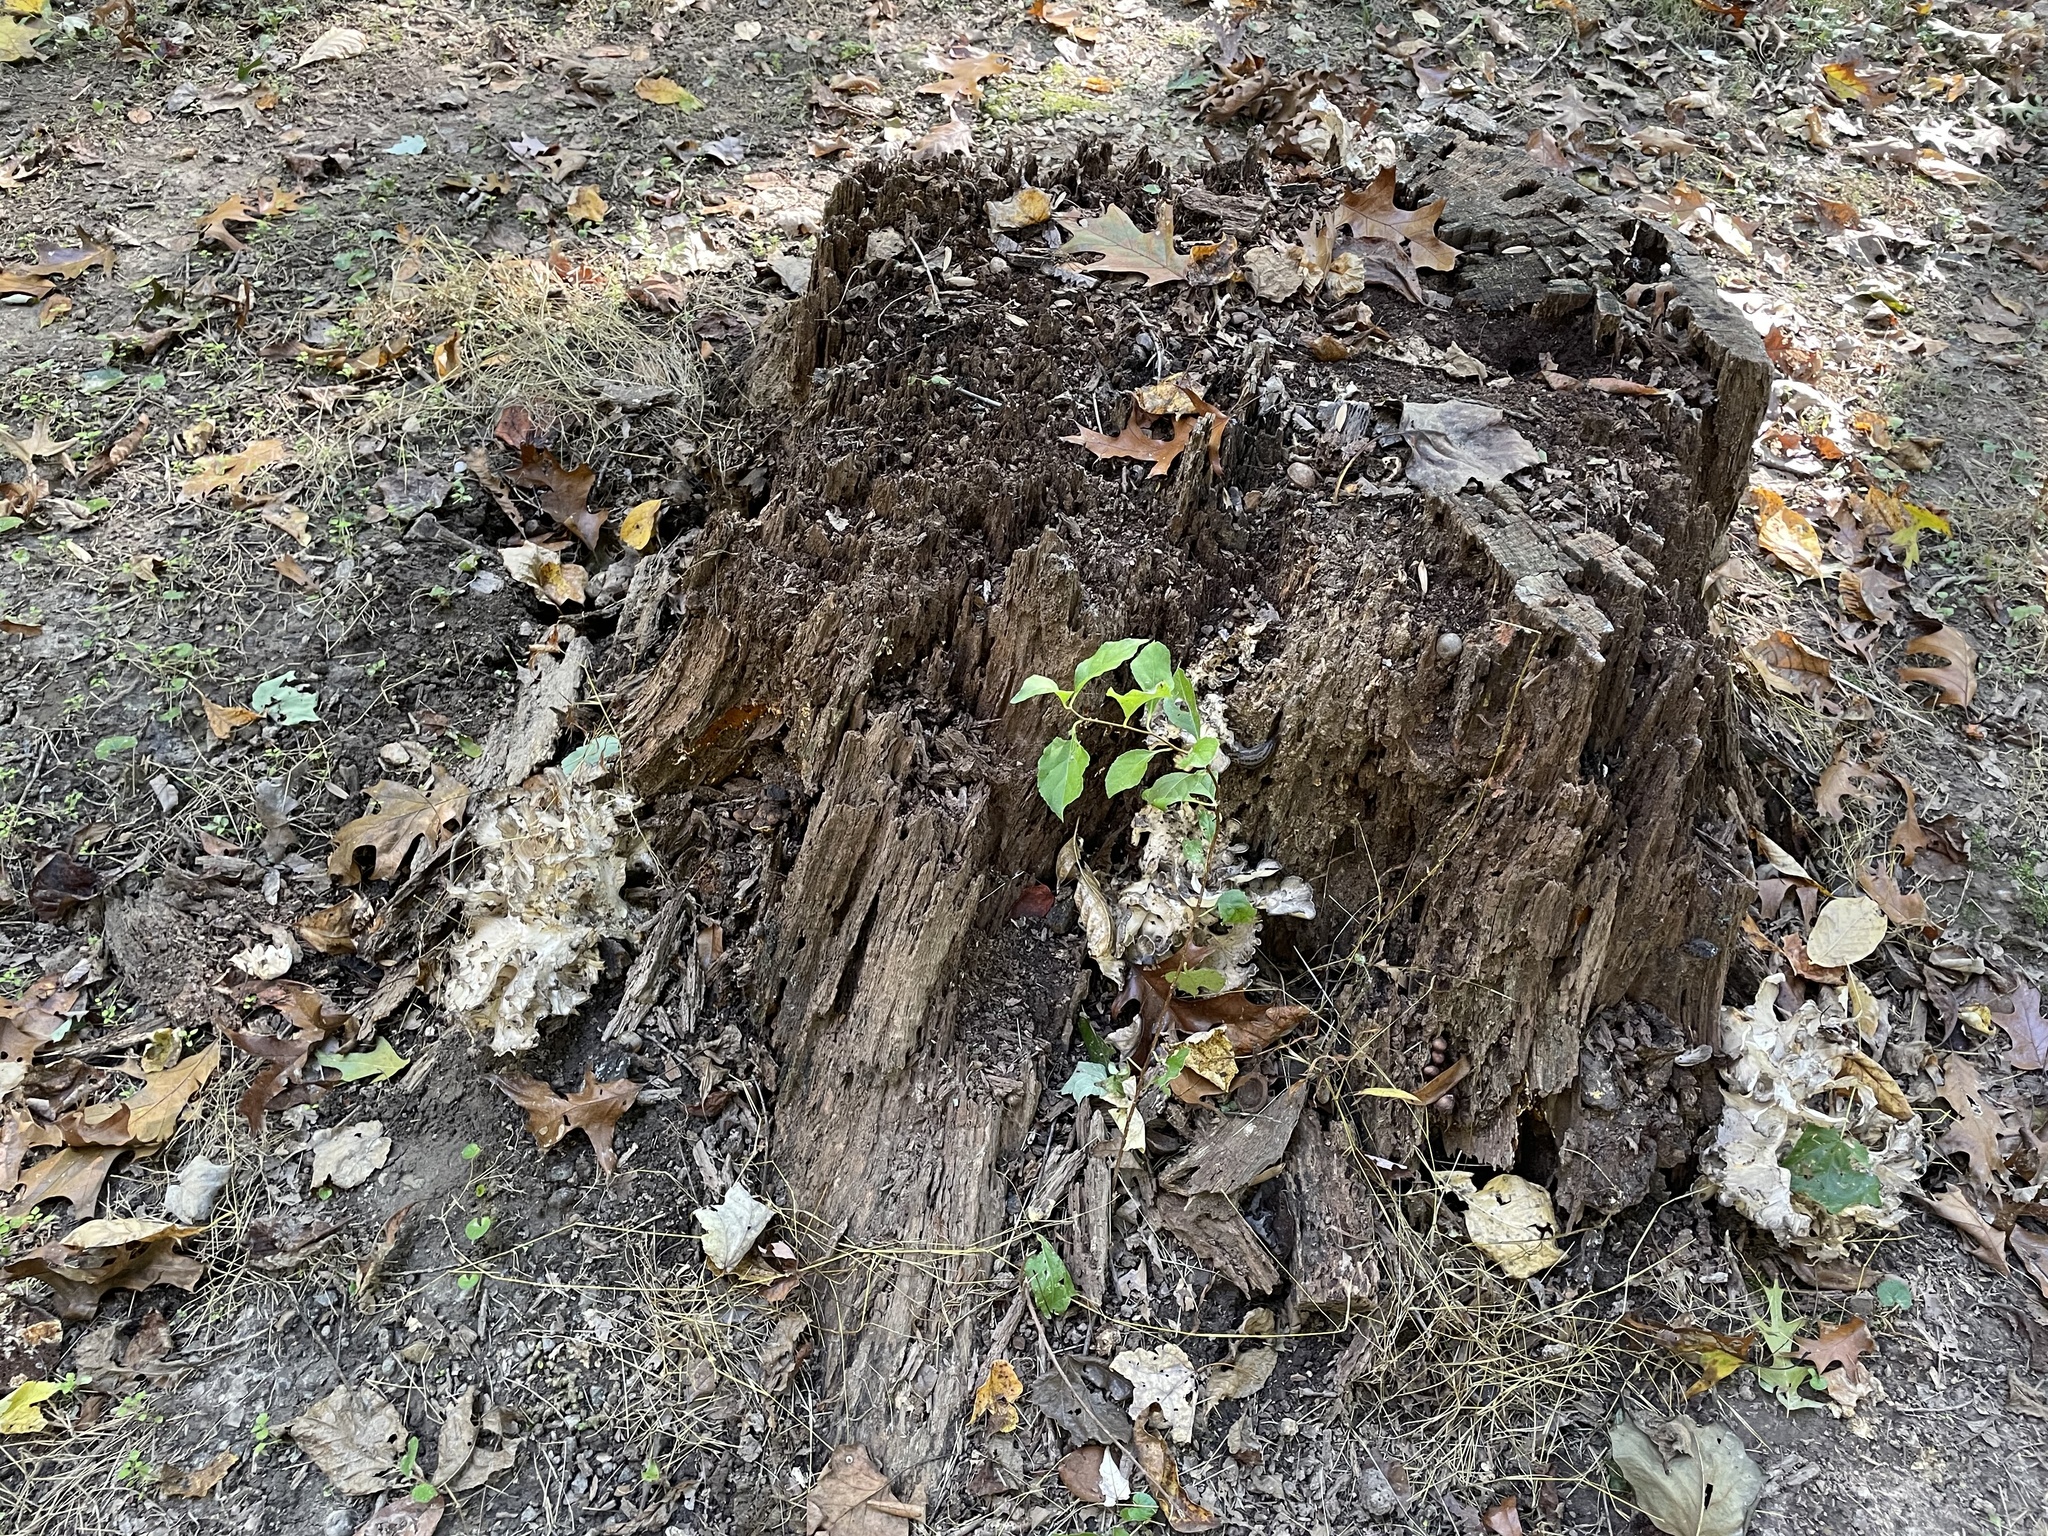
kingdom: Fungi
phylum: Basidiomycota
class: Agaricomycetes
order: Polyporales
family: Grifolaceae
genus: Grifola
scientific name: Grifola frondosa
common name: Hen of the woods
